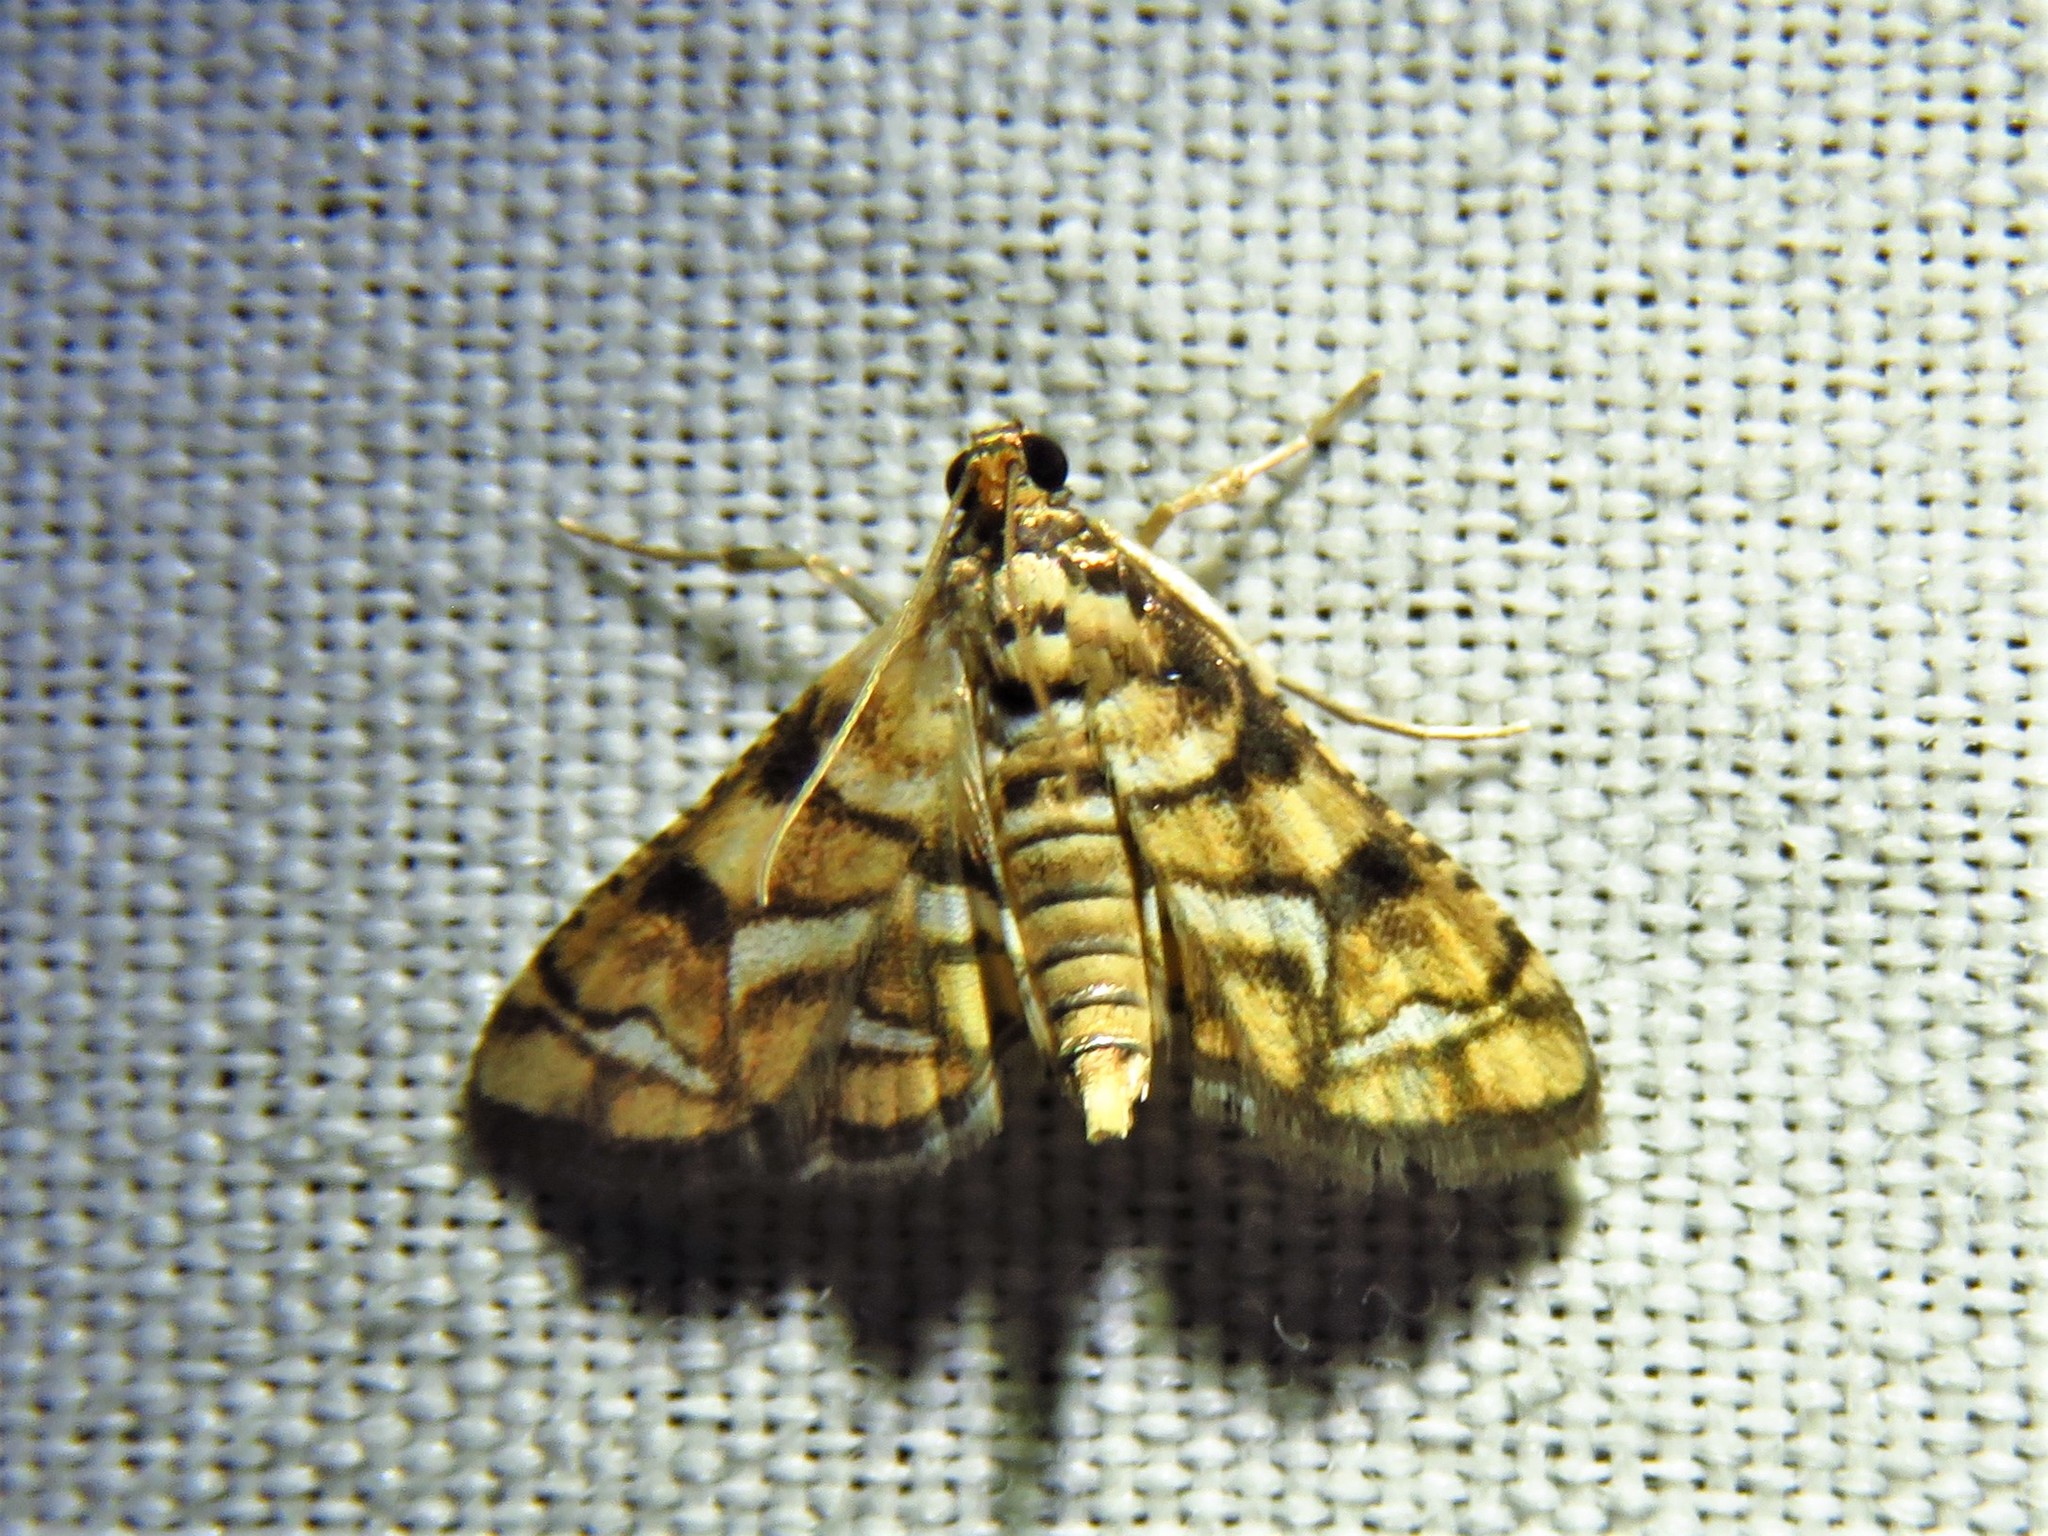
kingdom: Animalia
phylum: Arthropoda
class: Insecta
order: Lepidoptera
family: Crambidae
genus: Hileithia
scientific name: Hileithia magualis
